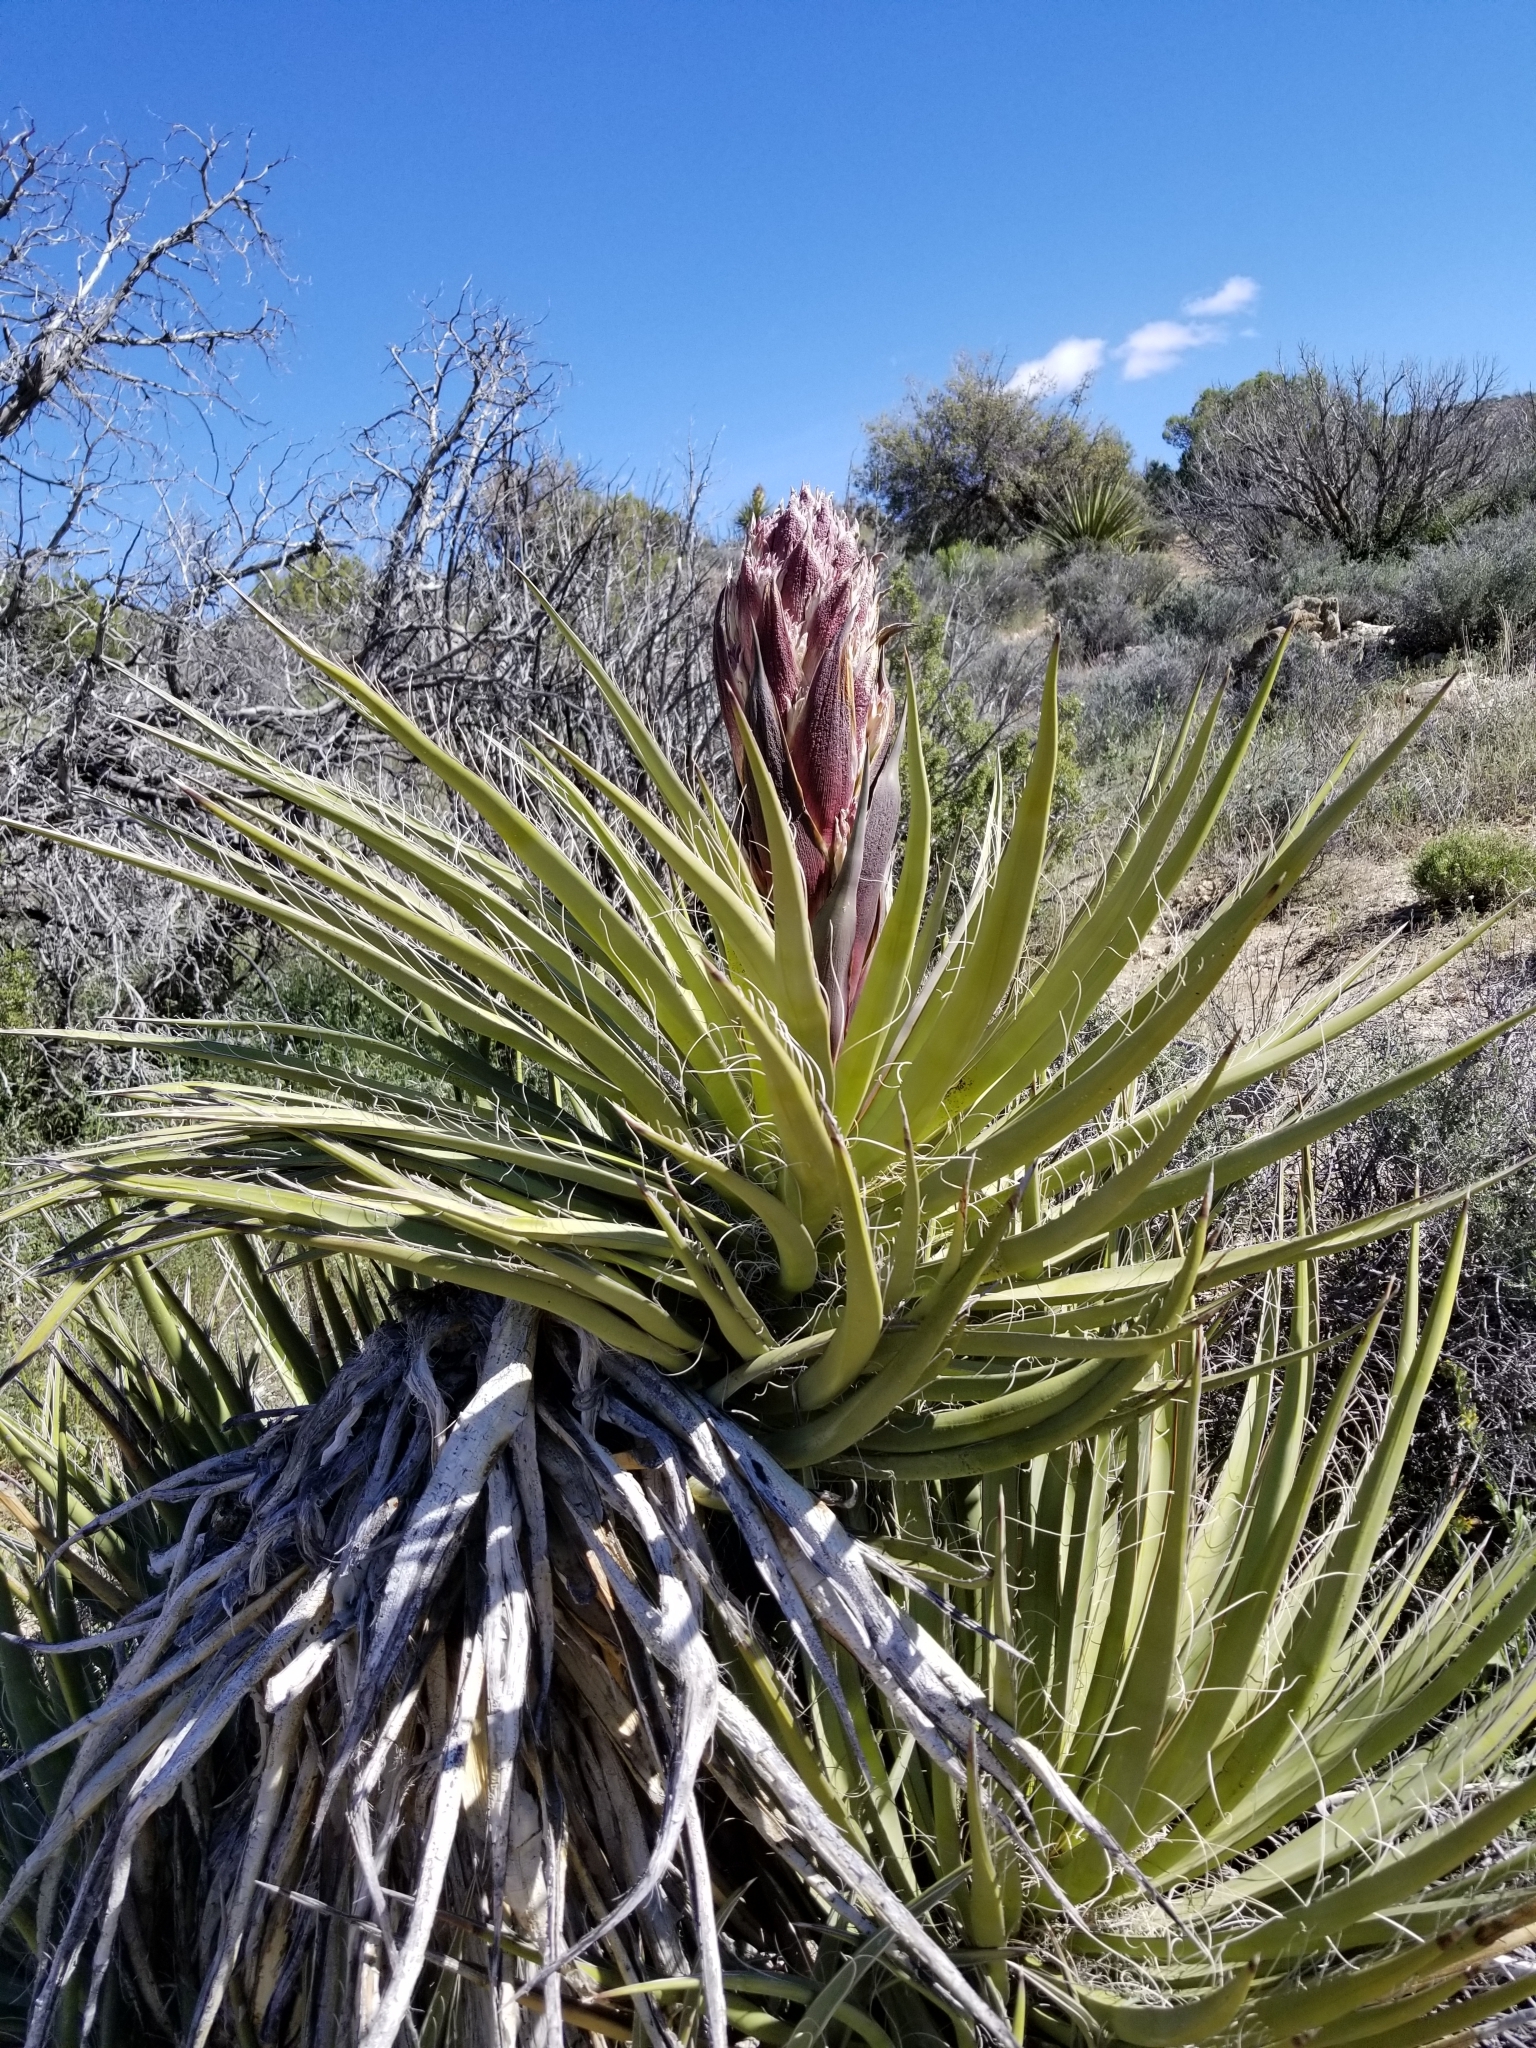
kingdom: Plantae
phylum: Tracheophyta
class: Liliopsida
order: Asparagales
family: Asparagaceae
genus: Yucca
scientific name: Yucca schidigera
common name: Mojave yucca
